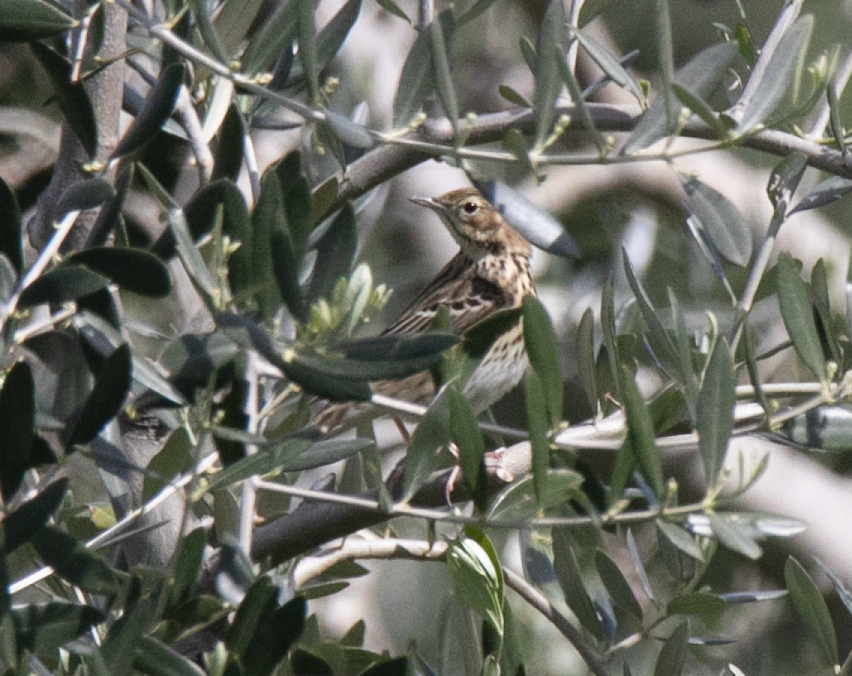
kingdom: Animalia
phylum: Chordata
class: Aves
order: Passeriformes
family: Motacillidae
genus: Anthus
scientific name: Anthus trivialis
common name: Tree pipit
